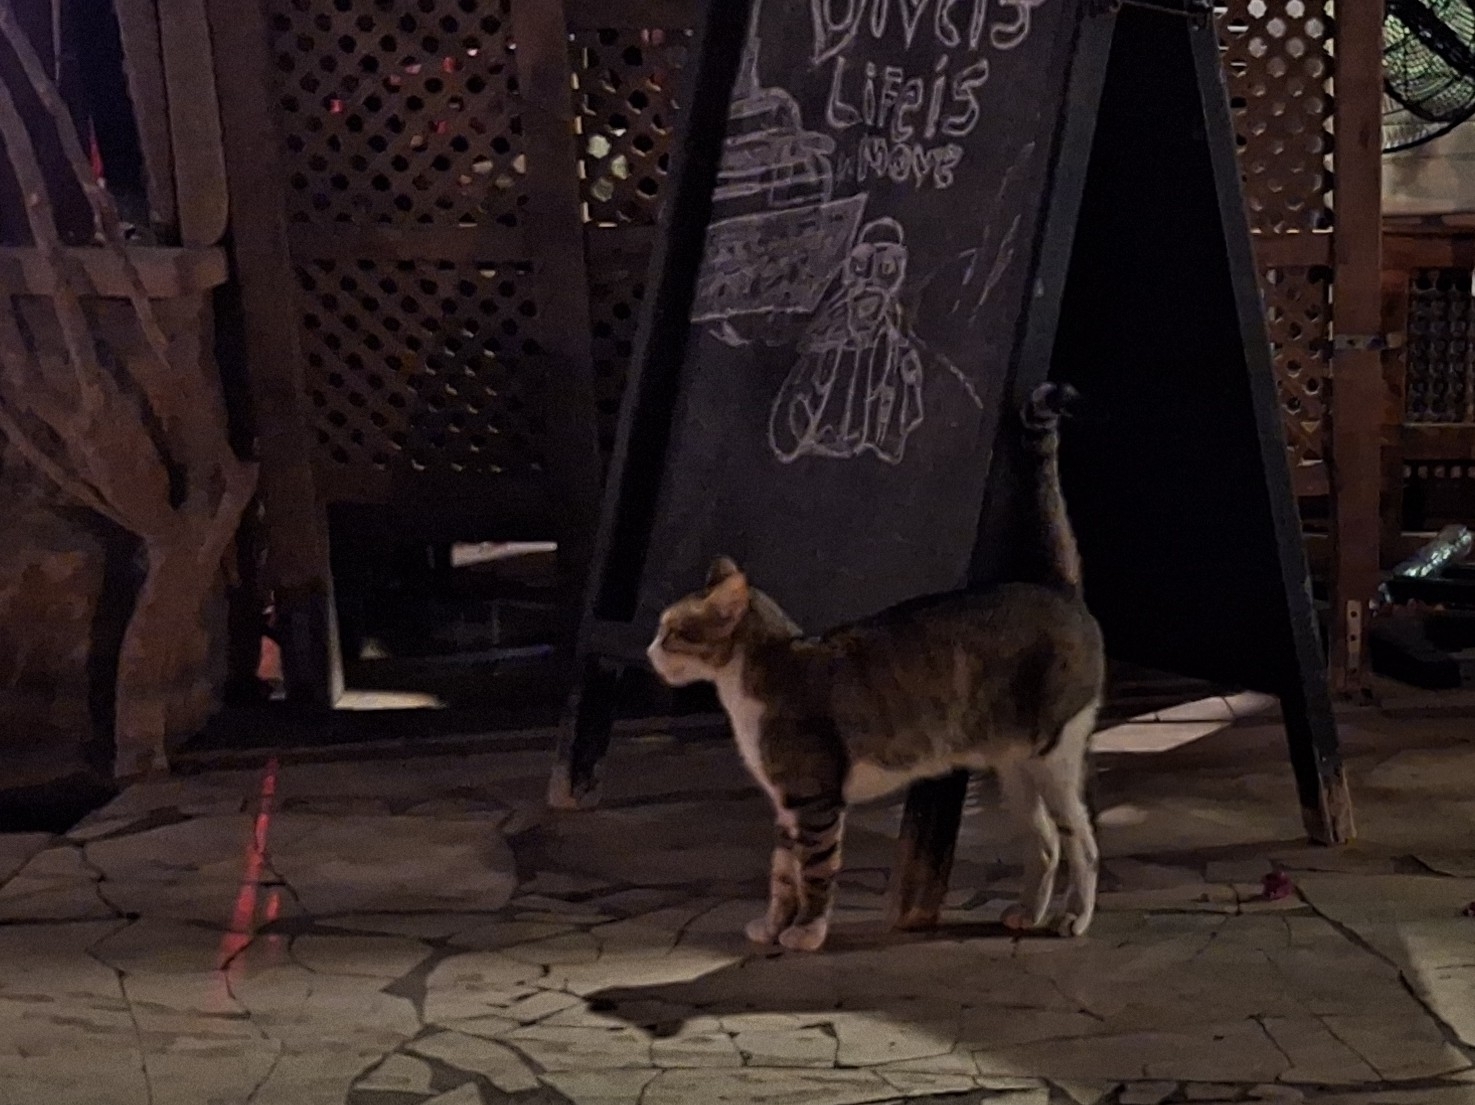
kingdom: Animalia
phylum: Chordata
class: Mammalia
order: Carnivora
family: Felidae
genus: Felis
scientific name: Felis catus
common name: Domestic cat
